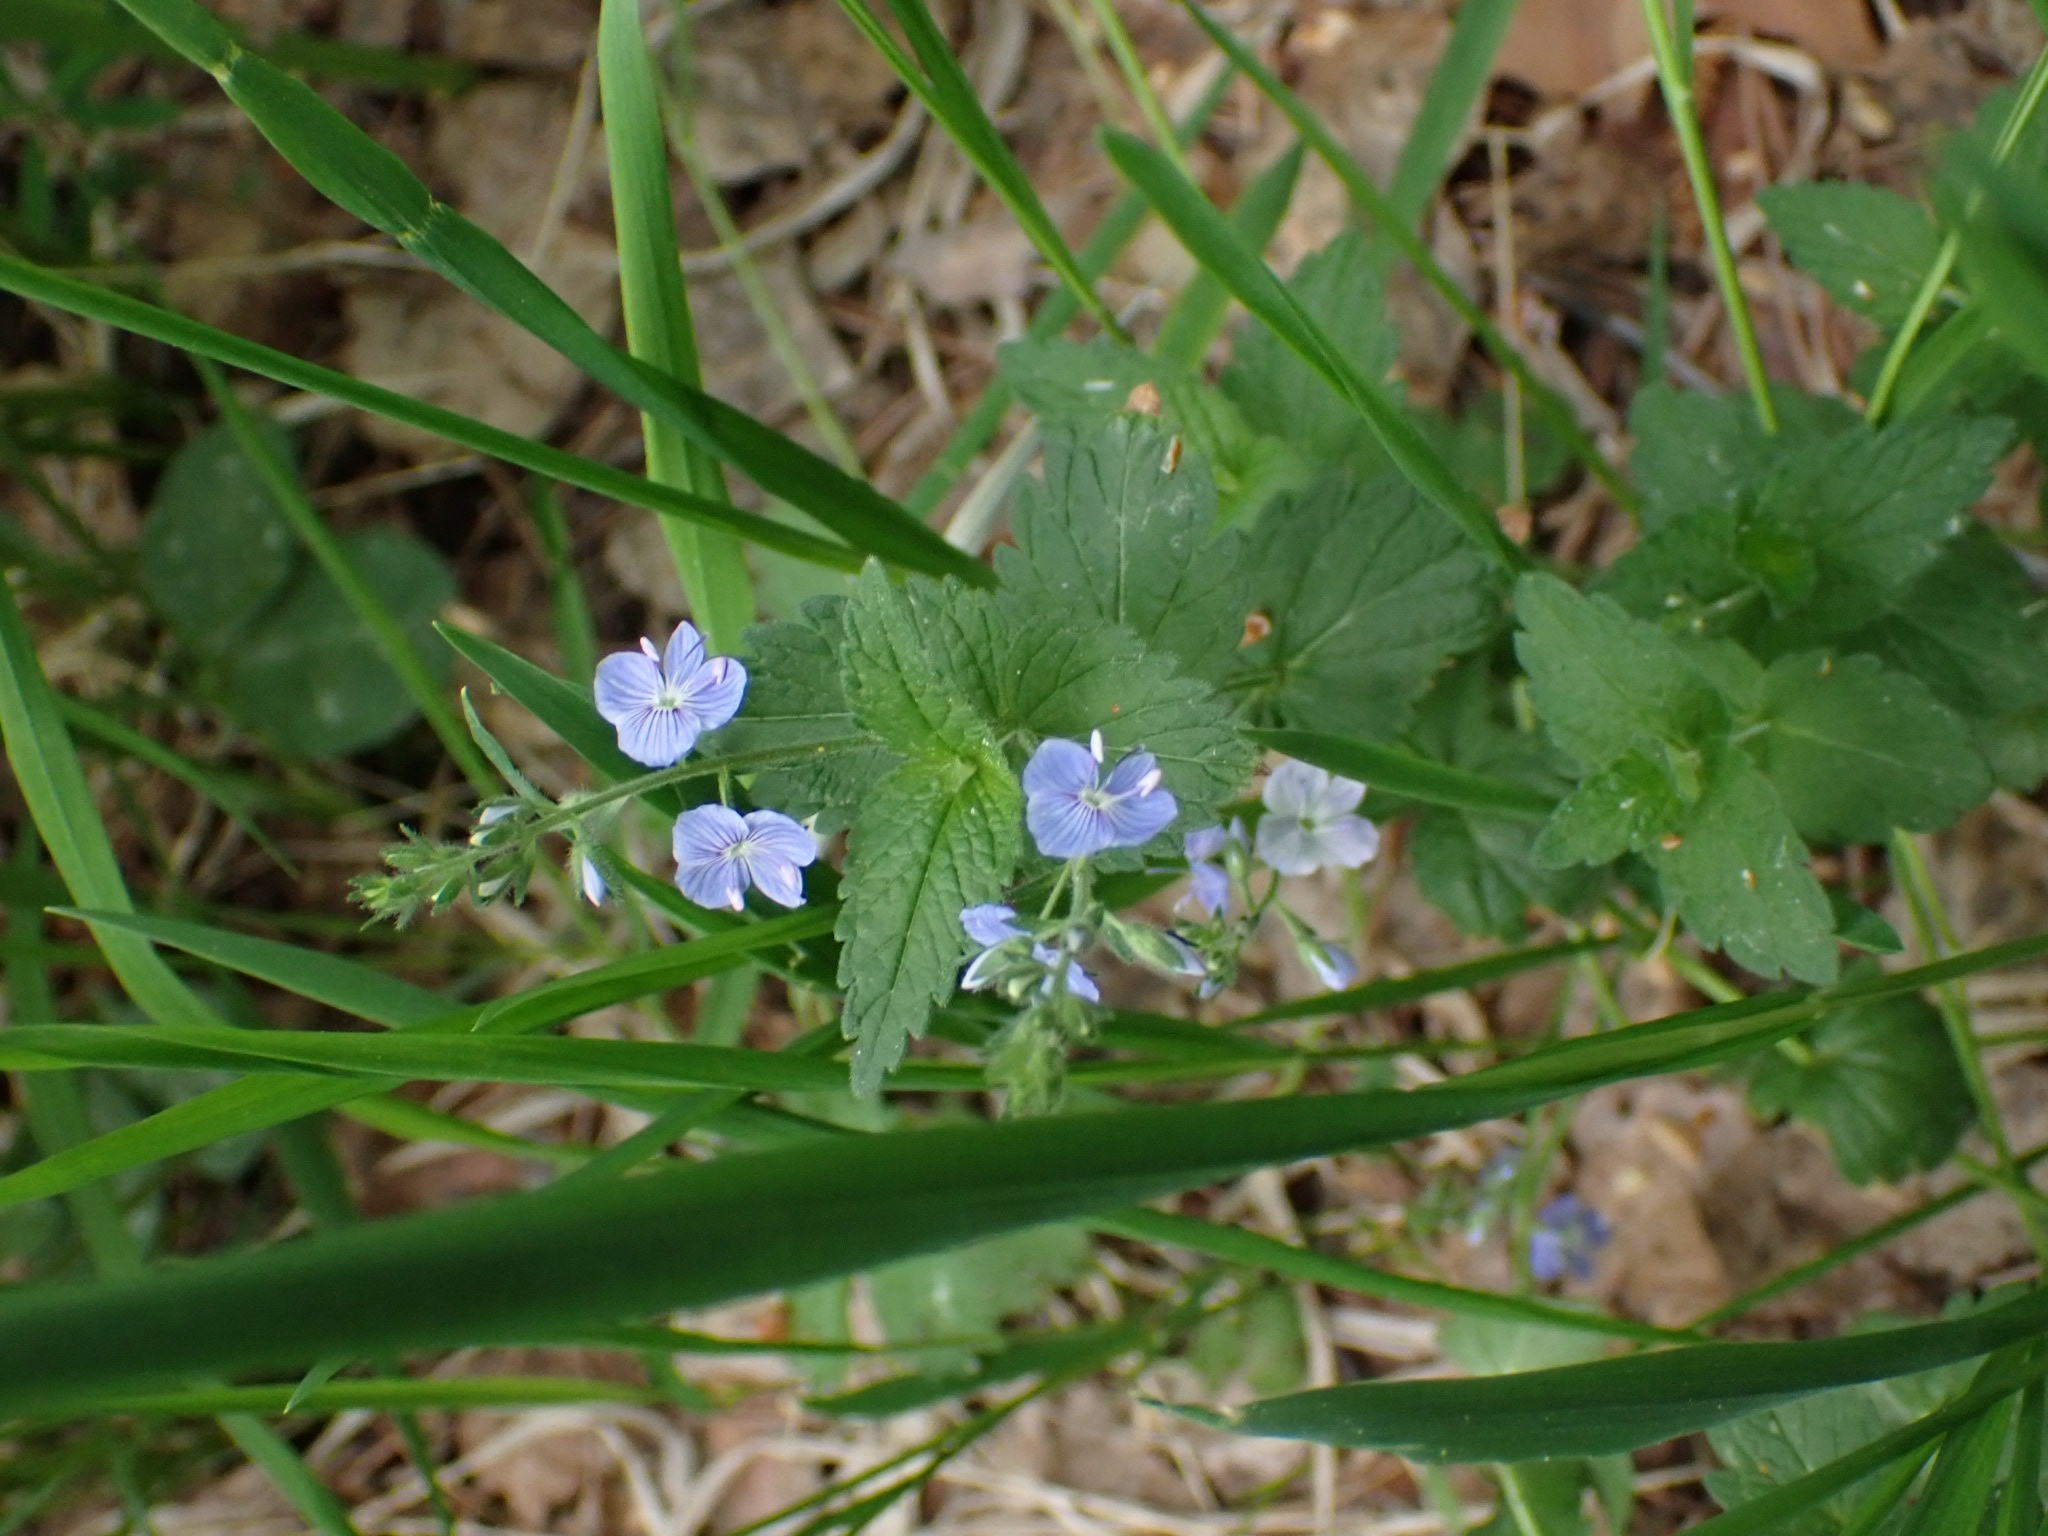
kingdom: Plantae
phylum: Tracheophyta
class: Magnoliopsida
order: Lamiales
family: Plantaginaceae
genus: Veronica
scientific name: Veronica chamaedrys
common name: Germander speedwell
